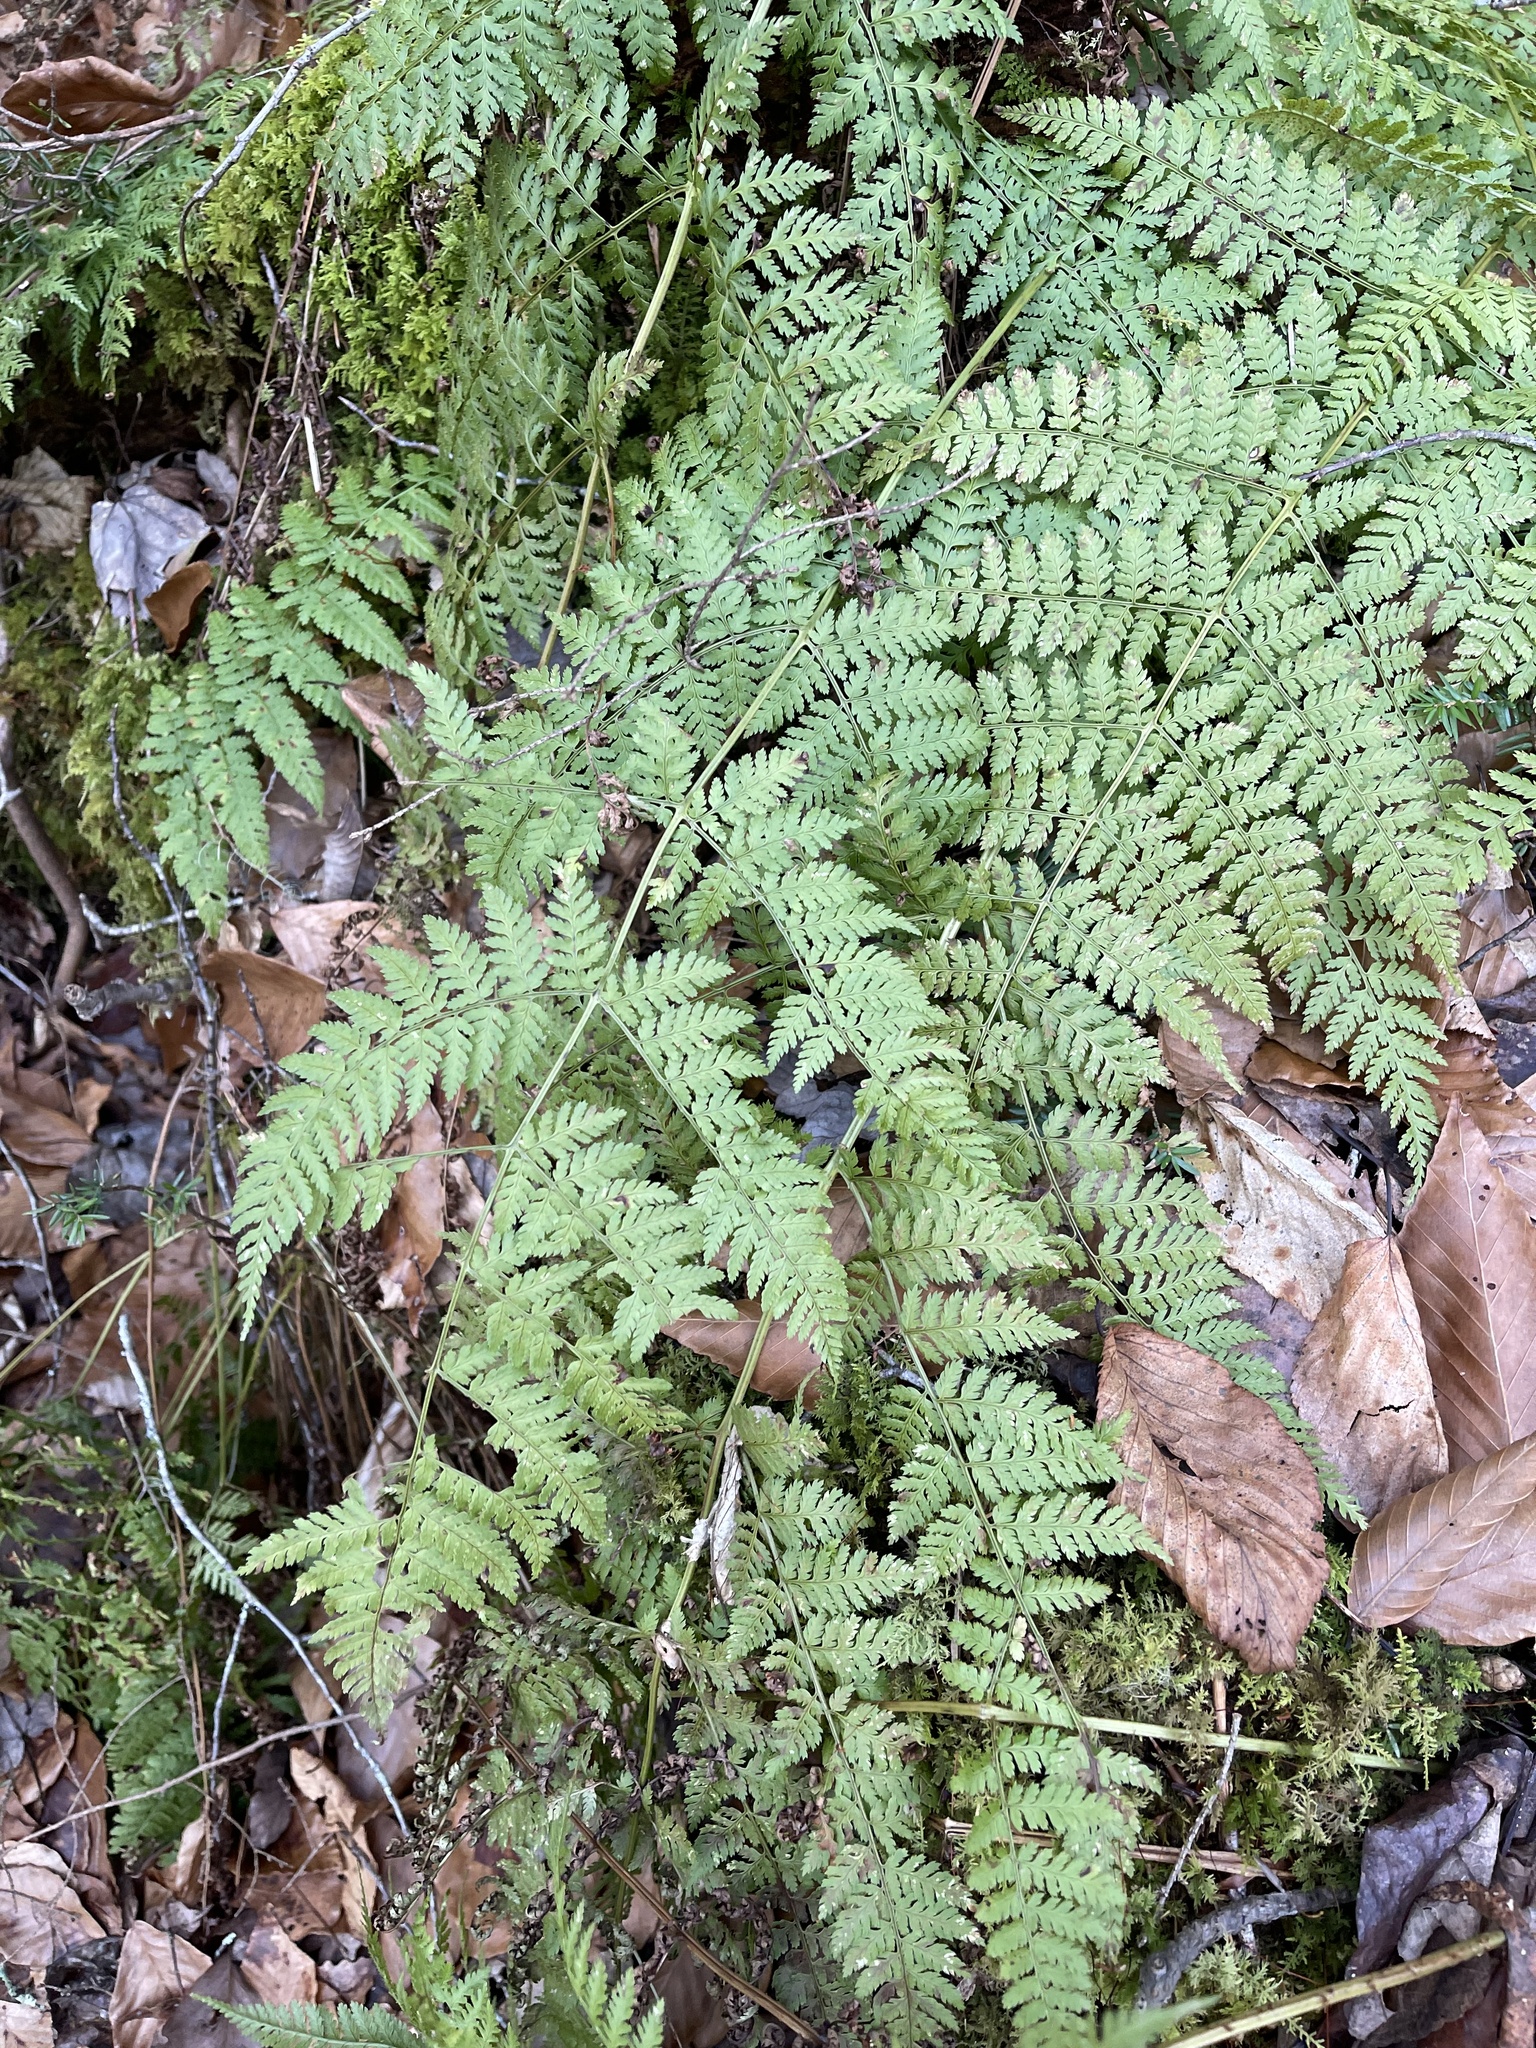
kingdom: Plantae
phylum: Tracheophyta
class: Polypodiopsida
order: Polypodiales
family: Dryopteridaceae
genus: Dryopteris
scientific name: Dryopteris intermedia
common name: Evergreen wood fern
